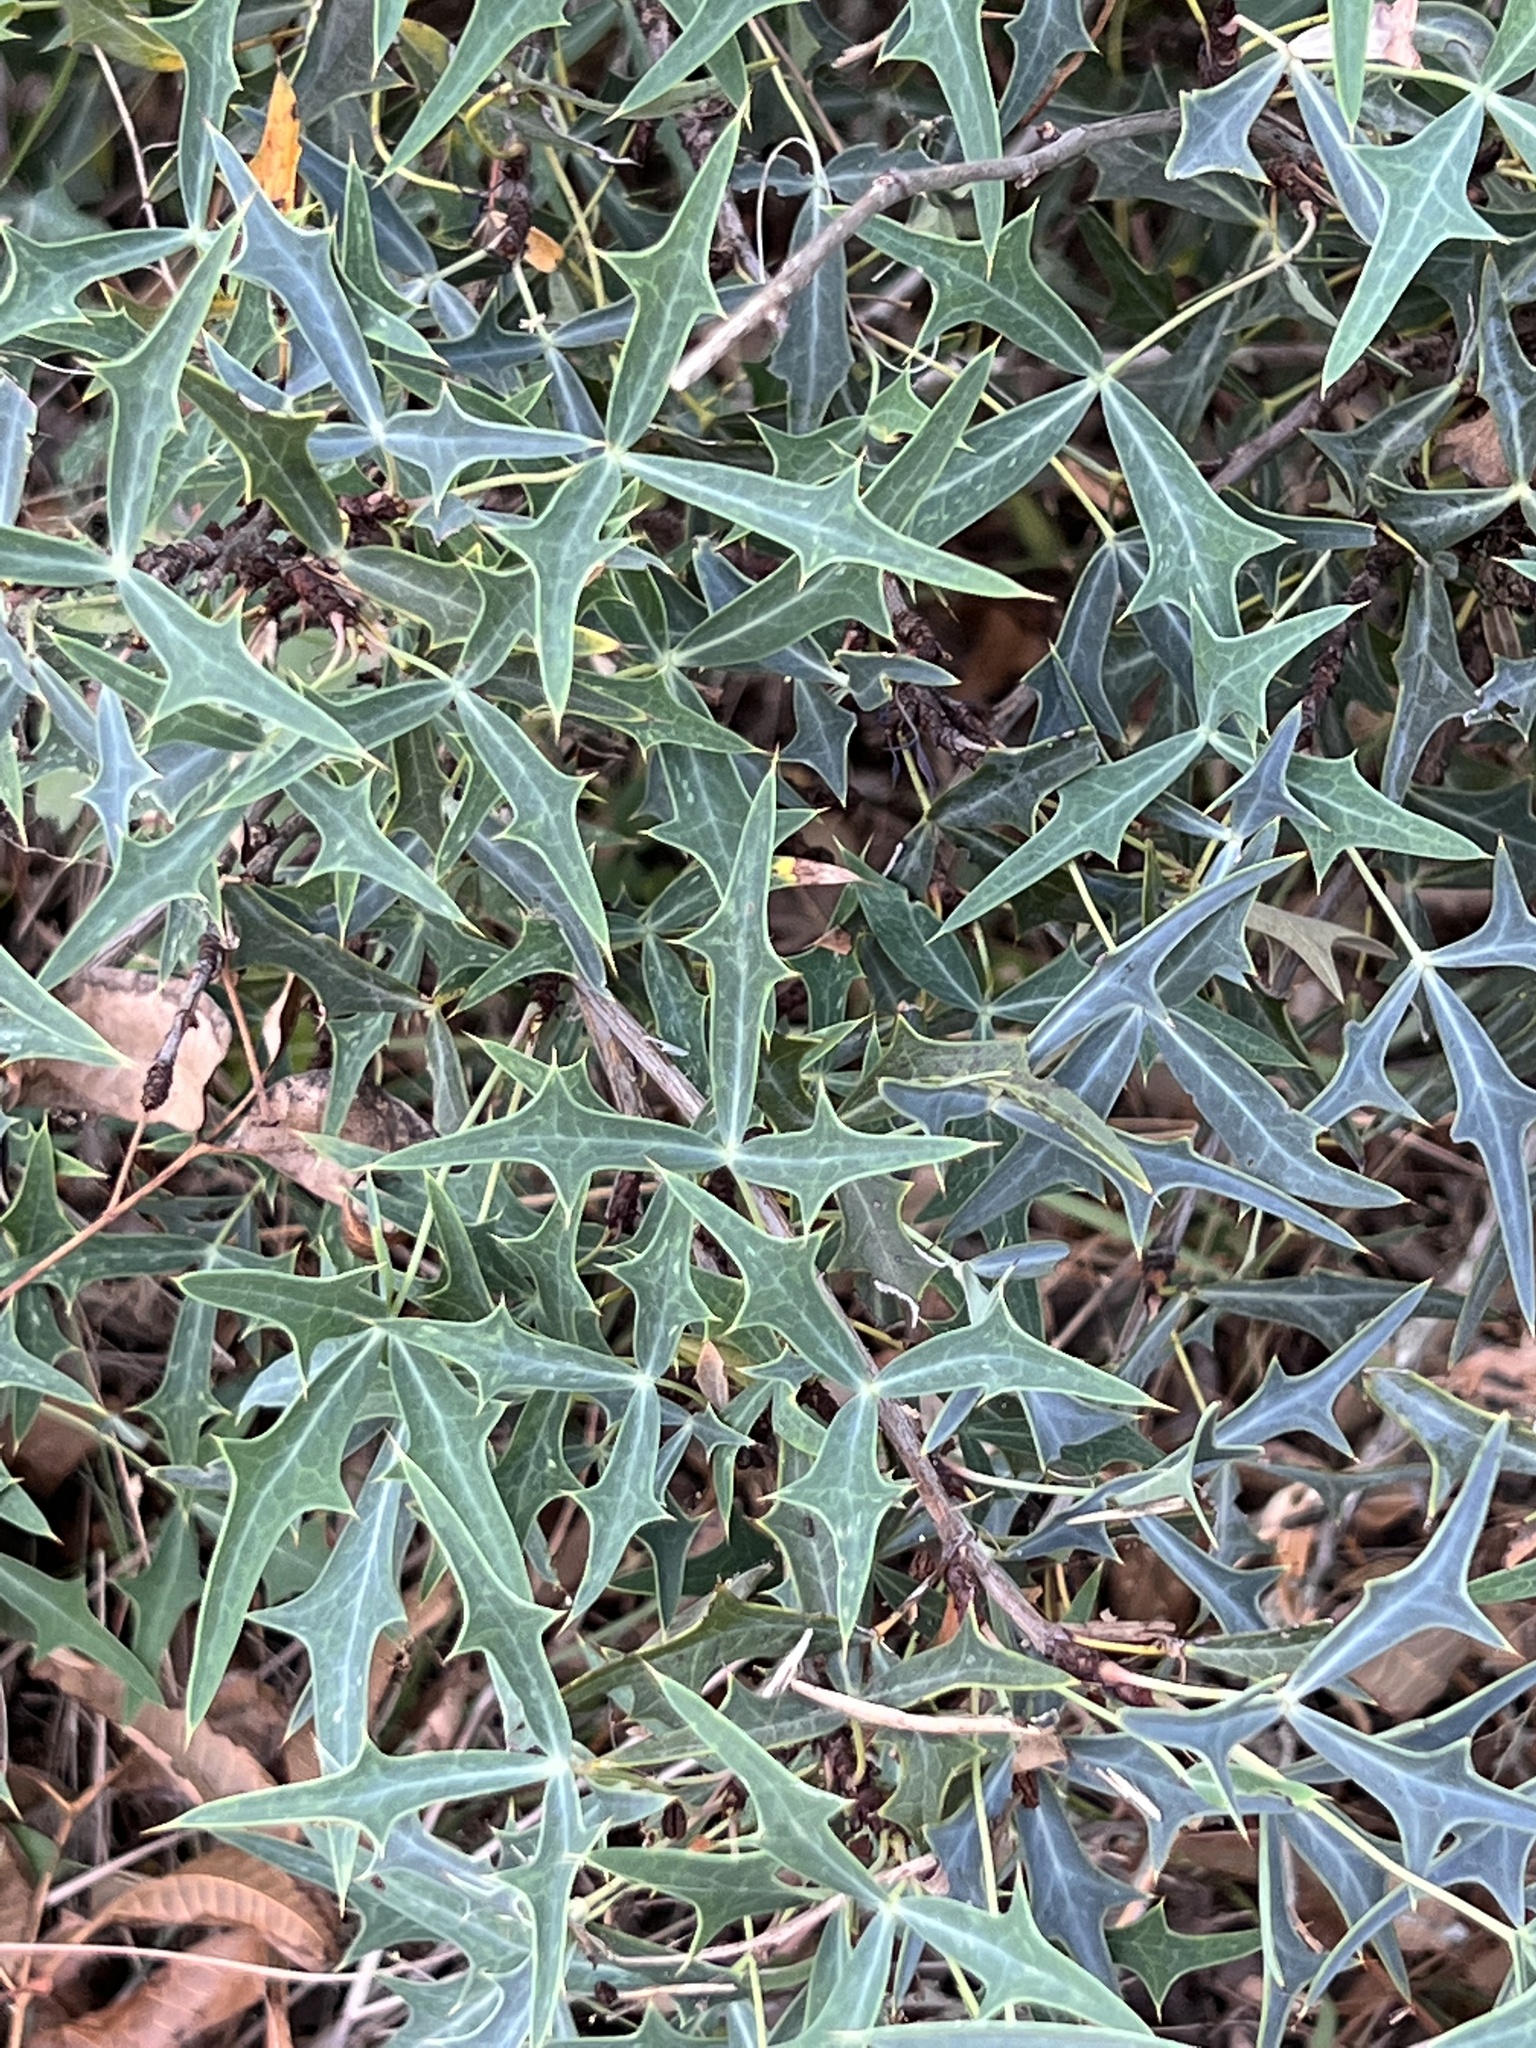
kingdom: Plantae
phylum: Tracheophyta
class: Magnoliopsida
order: Ranunculales
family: Berberidaceae
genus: Alloberberis
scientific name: Alloberberis trifoliolata
